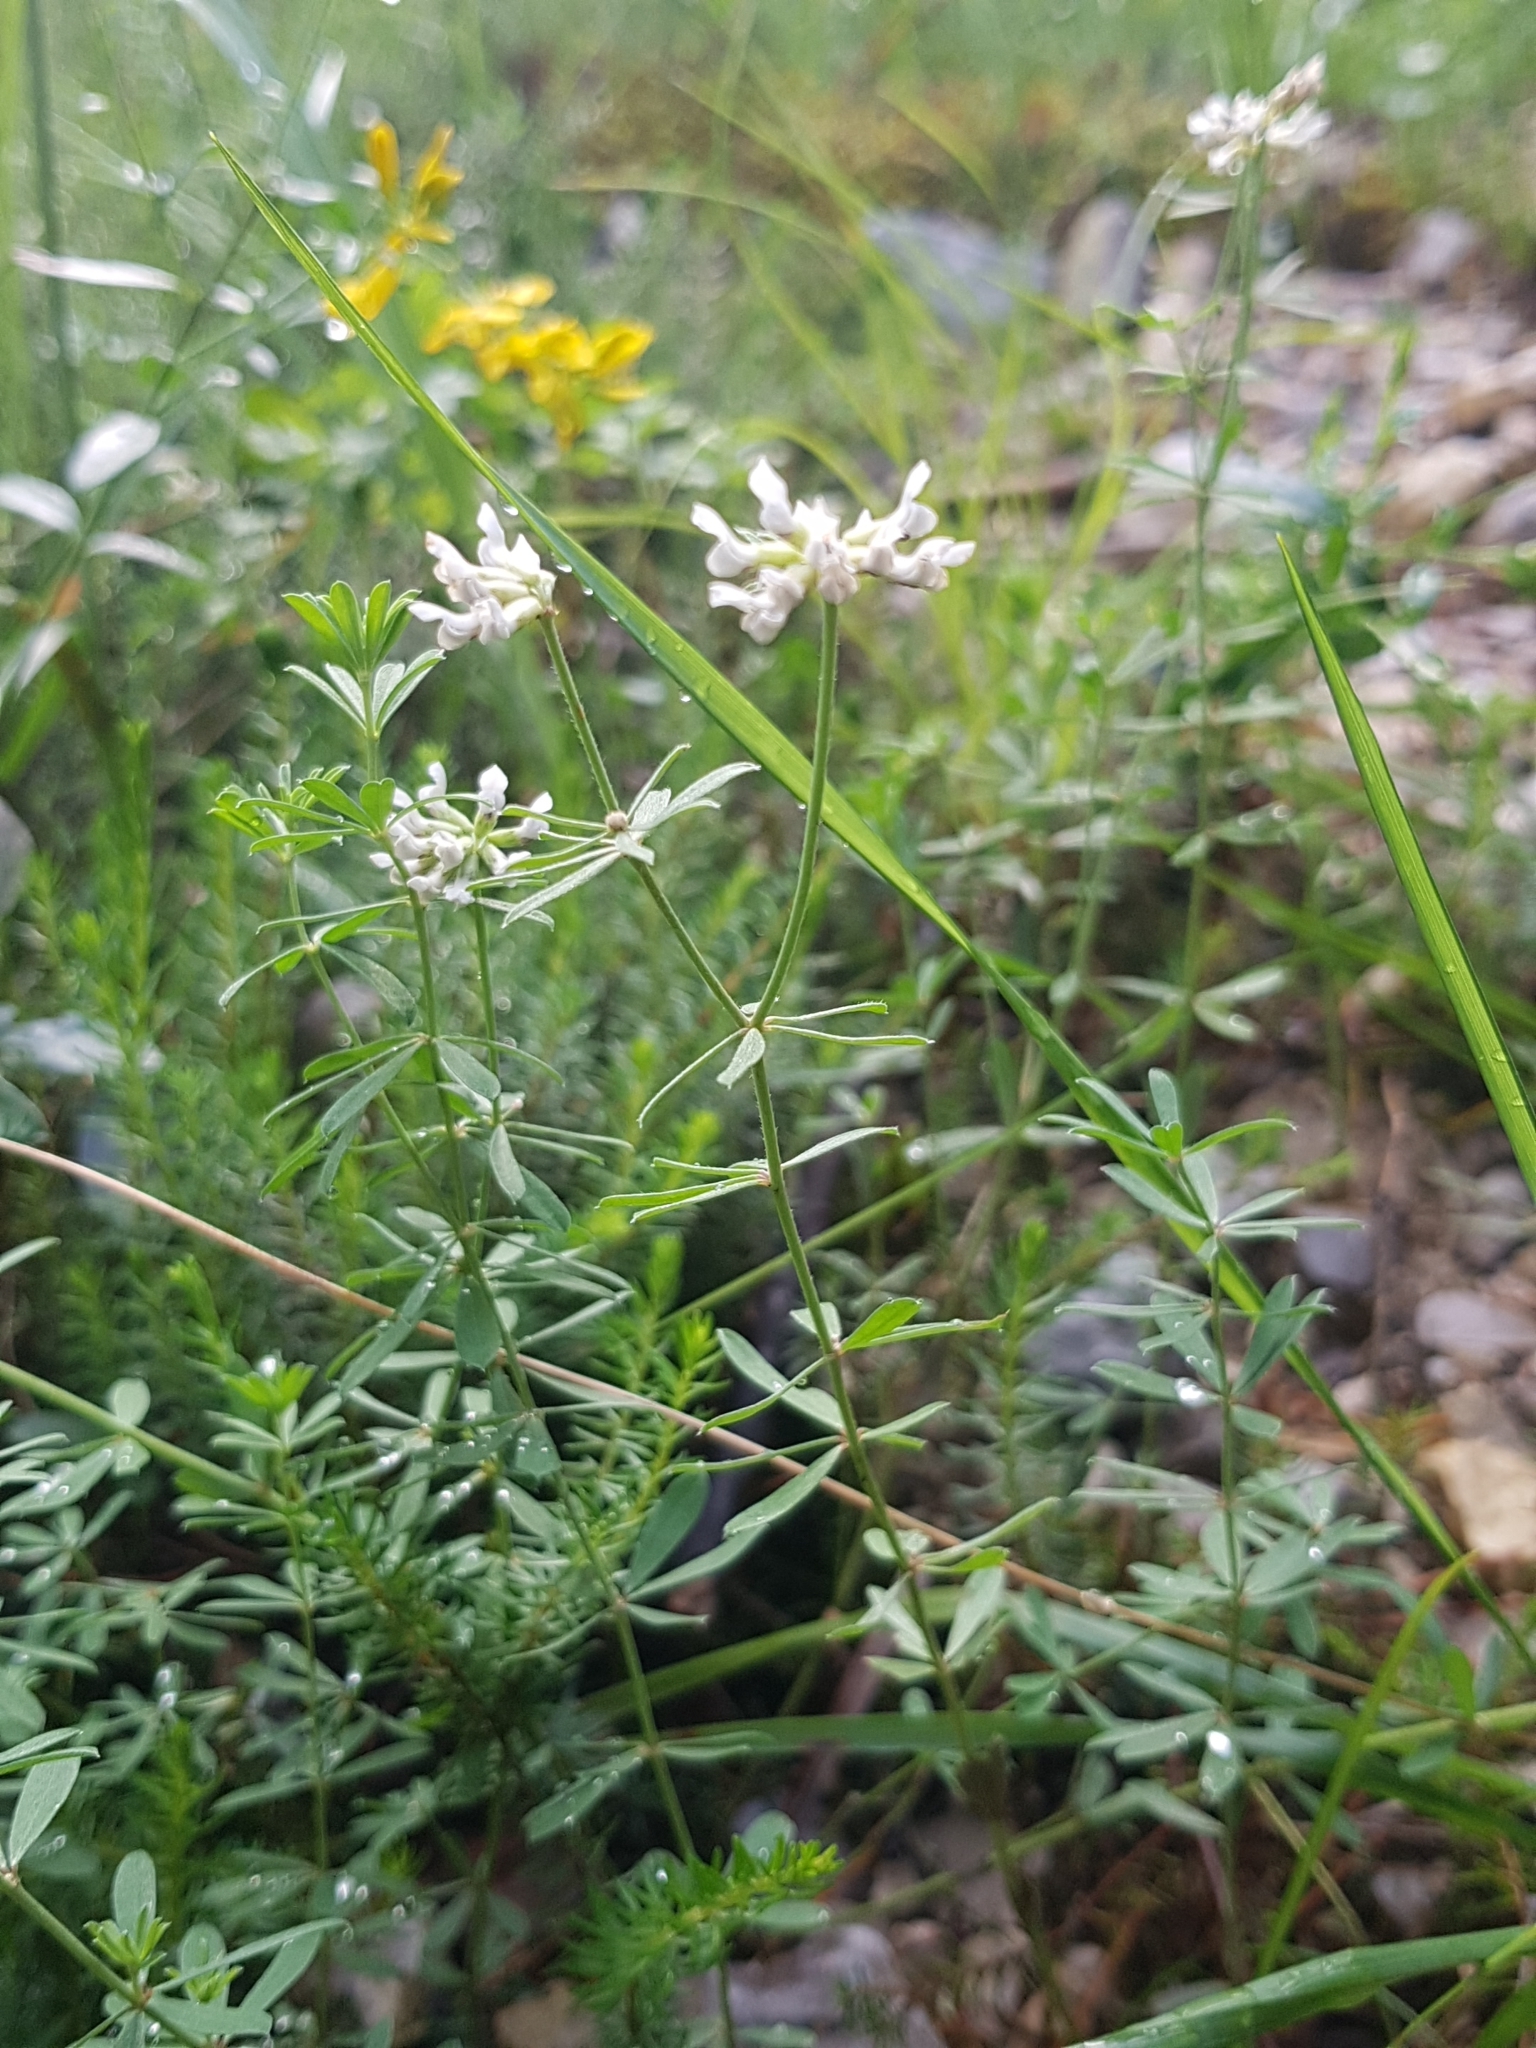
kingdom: Plantae
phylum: Tracheophyta
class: Magnoliopsida
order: Fabales
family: Fabaceae
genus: Lotus
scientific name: Lotus germanicus
